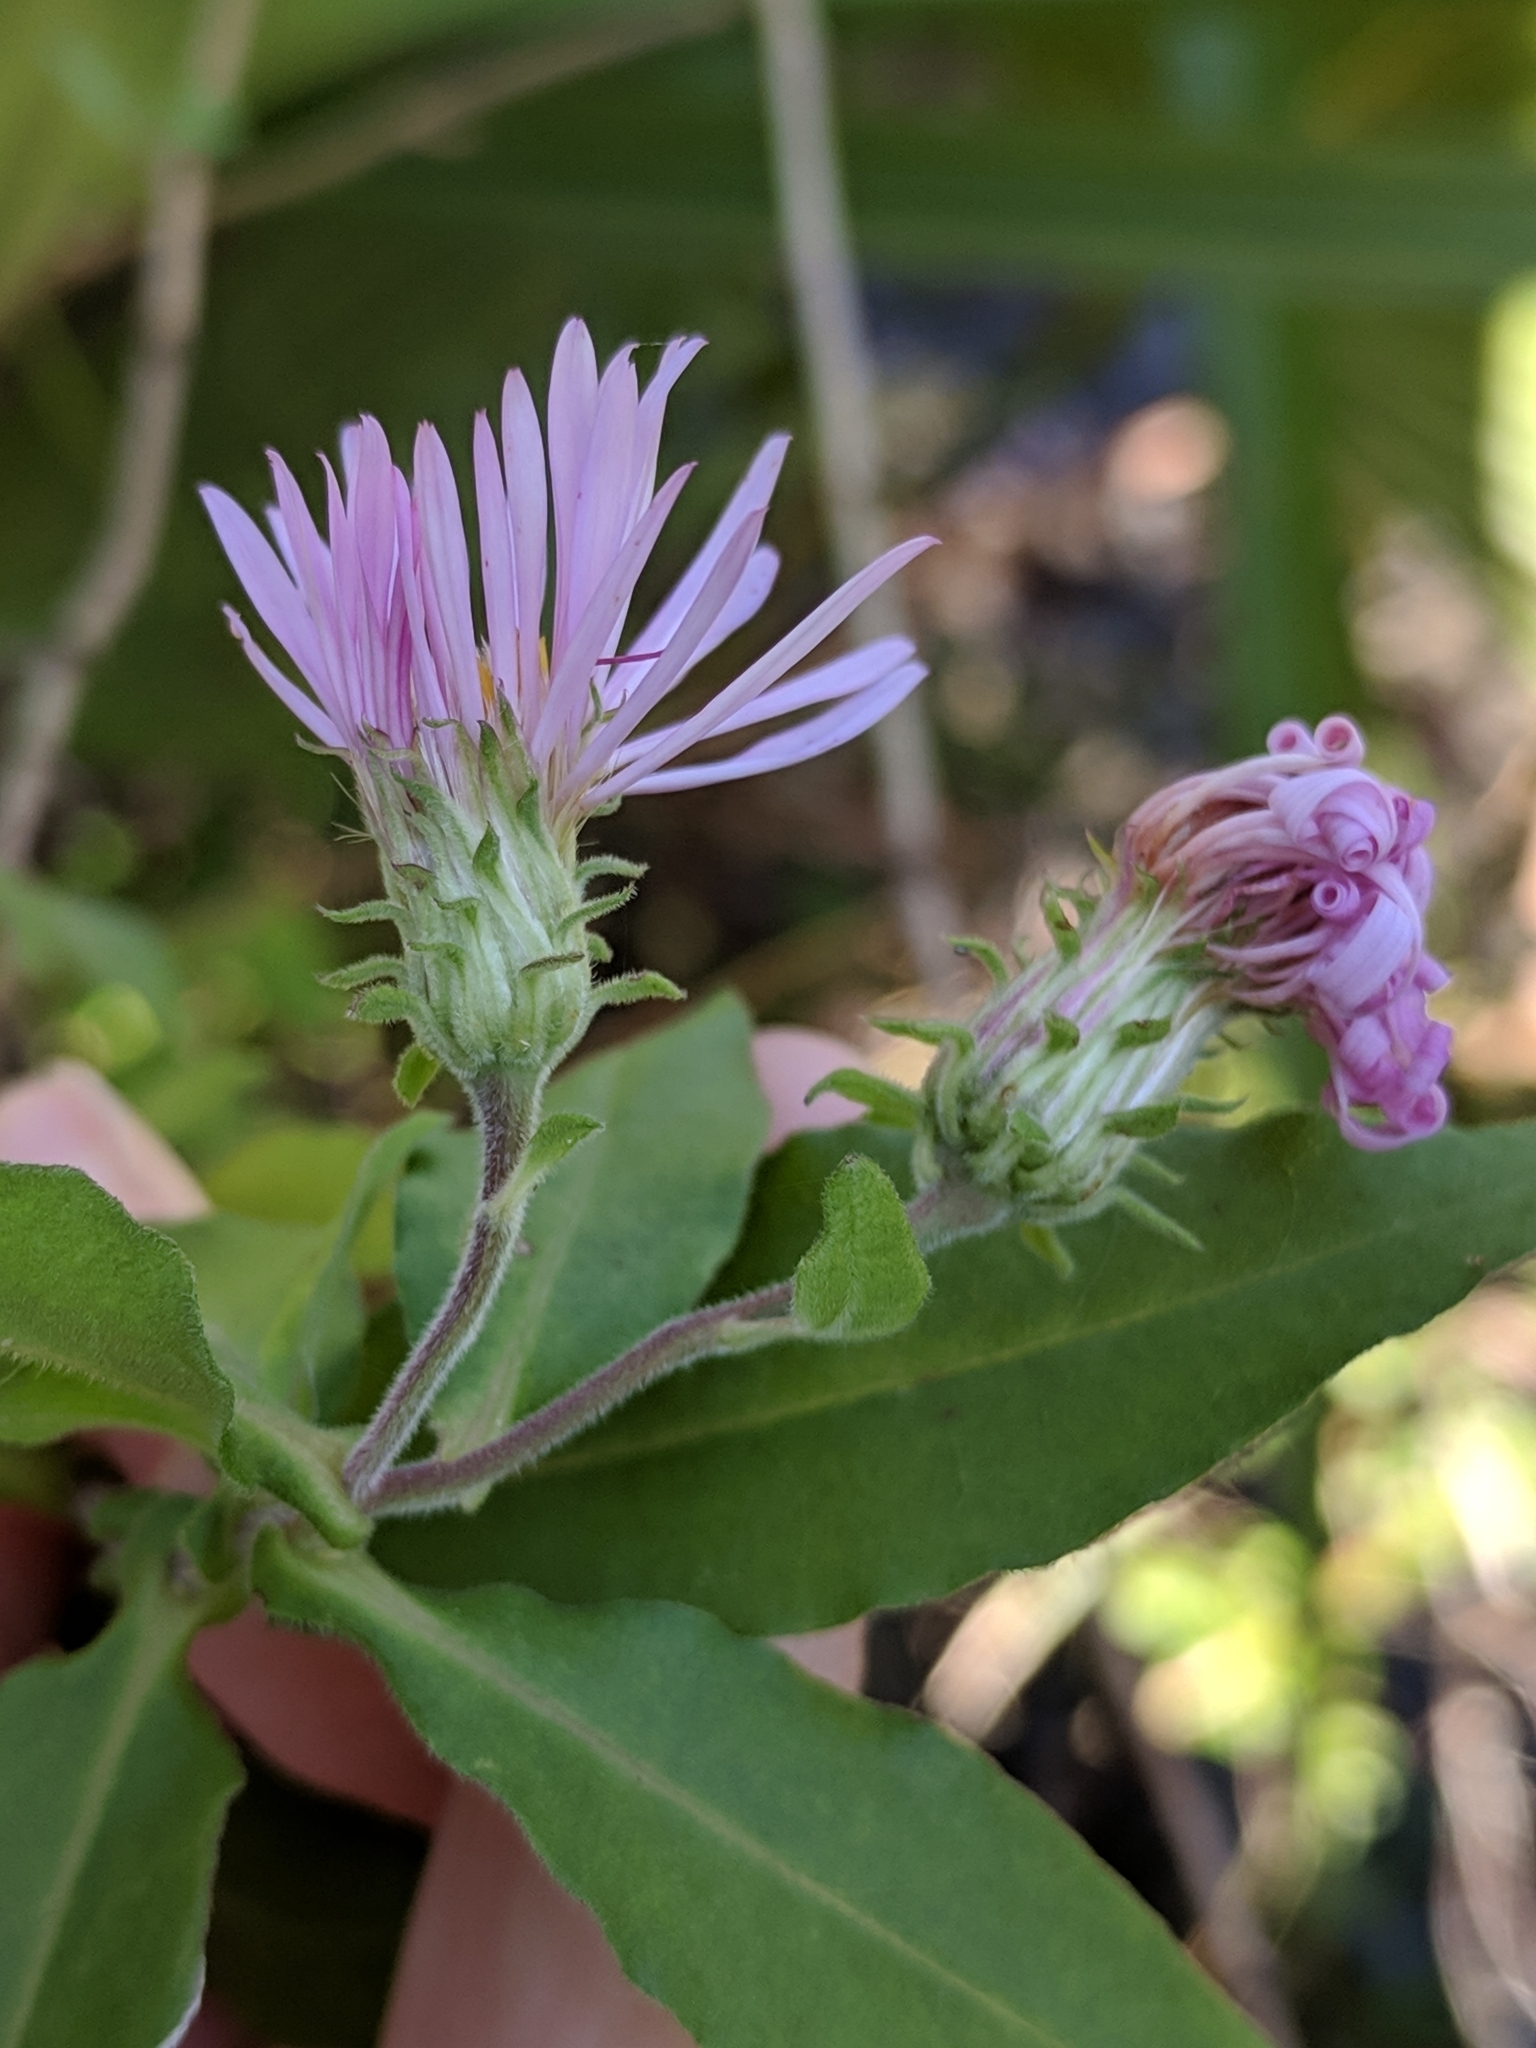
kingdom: Plantae
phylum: Tracheophyta
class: Magnoliopsida
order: Asterales
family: Asteraceae
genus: Ampelaster
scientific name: Ampelaster carolinianus
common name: Climbing aster
